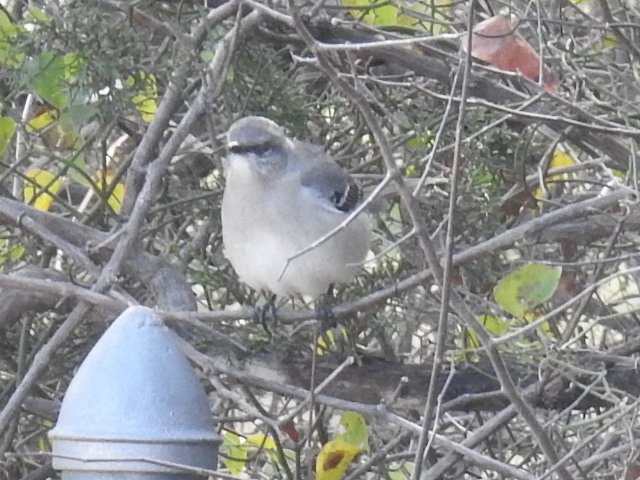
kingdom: Animalia
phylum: Chordata
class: Aves
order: Passeriformes
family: Mimidae
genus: Mimus
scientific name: Mimus polyglottos
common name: Northern mockingbird
